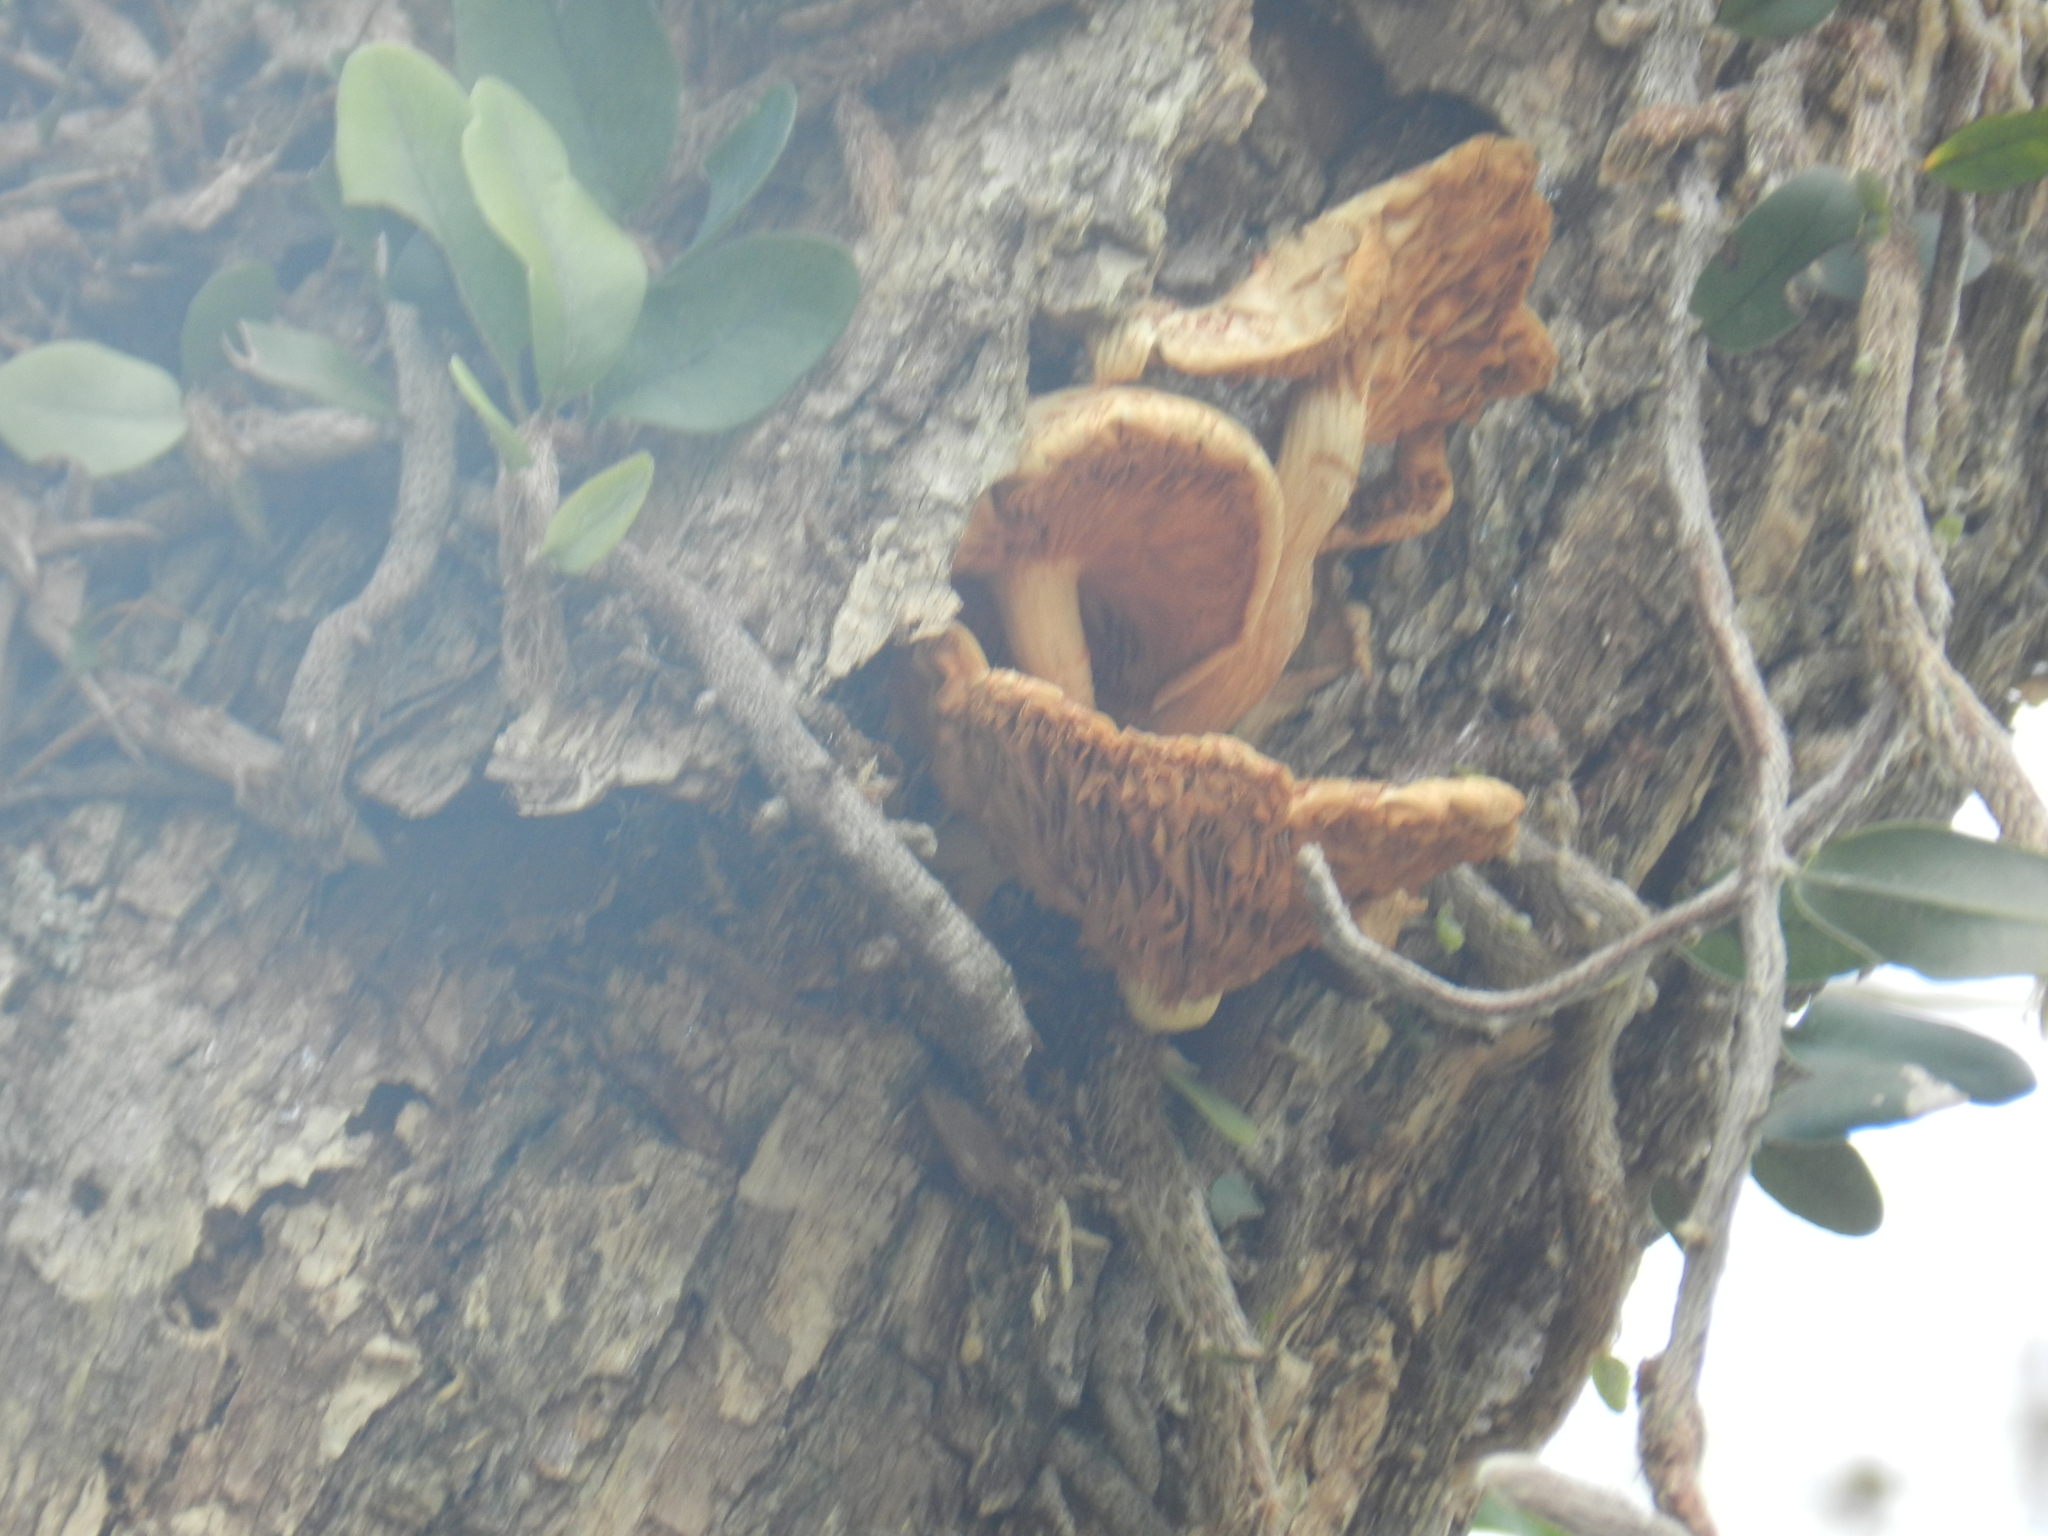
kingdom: Fungi
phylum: Basidiomycota
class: Agaricomycetes
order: Agaricales
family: Hymenogastraceae
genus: Gymnopilus
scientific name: Gymnopilus junonius
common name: Spectacular rustgill
